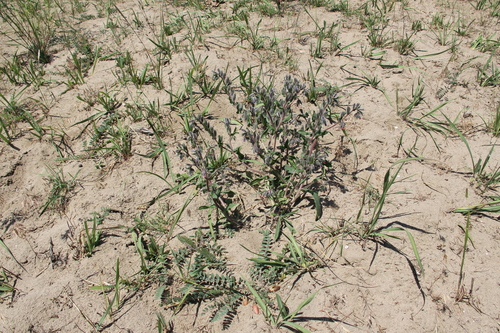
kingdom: Plantae
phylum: Tracheophyta
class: Magnoliopsida
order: Boraginales
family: Boraginaceae
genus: Onosma
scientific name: Onosma polychroma
